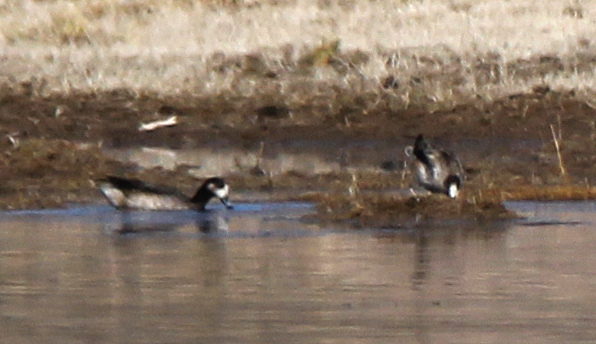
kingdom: Animalia
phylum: Chordata
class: Aves
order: Anseriformes
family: Anatidae
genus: Mareca
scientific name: Mareca sibilatrix
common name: Chiloe wigeon
